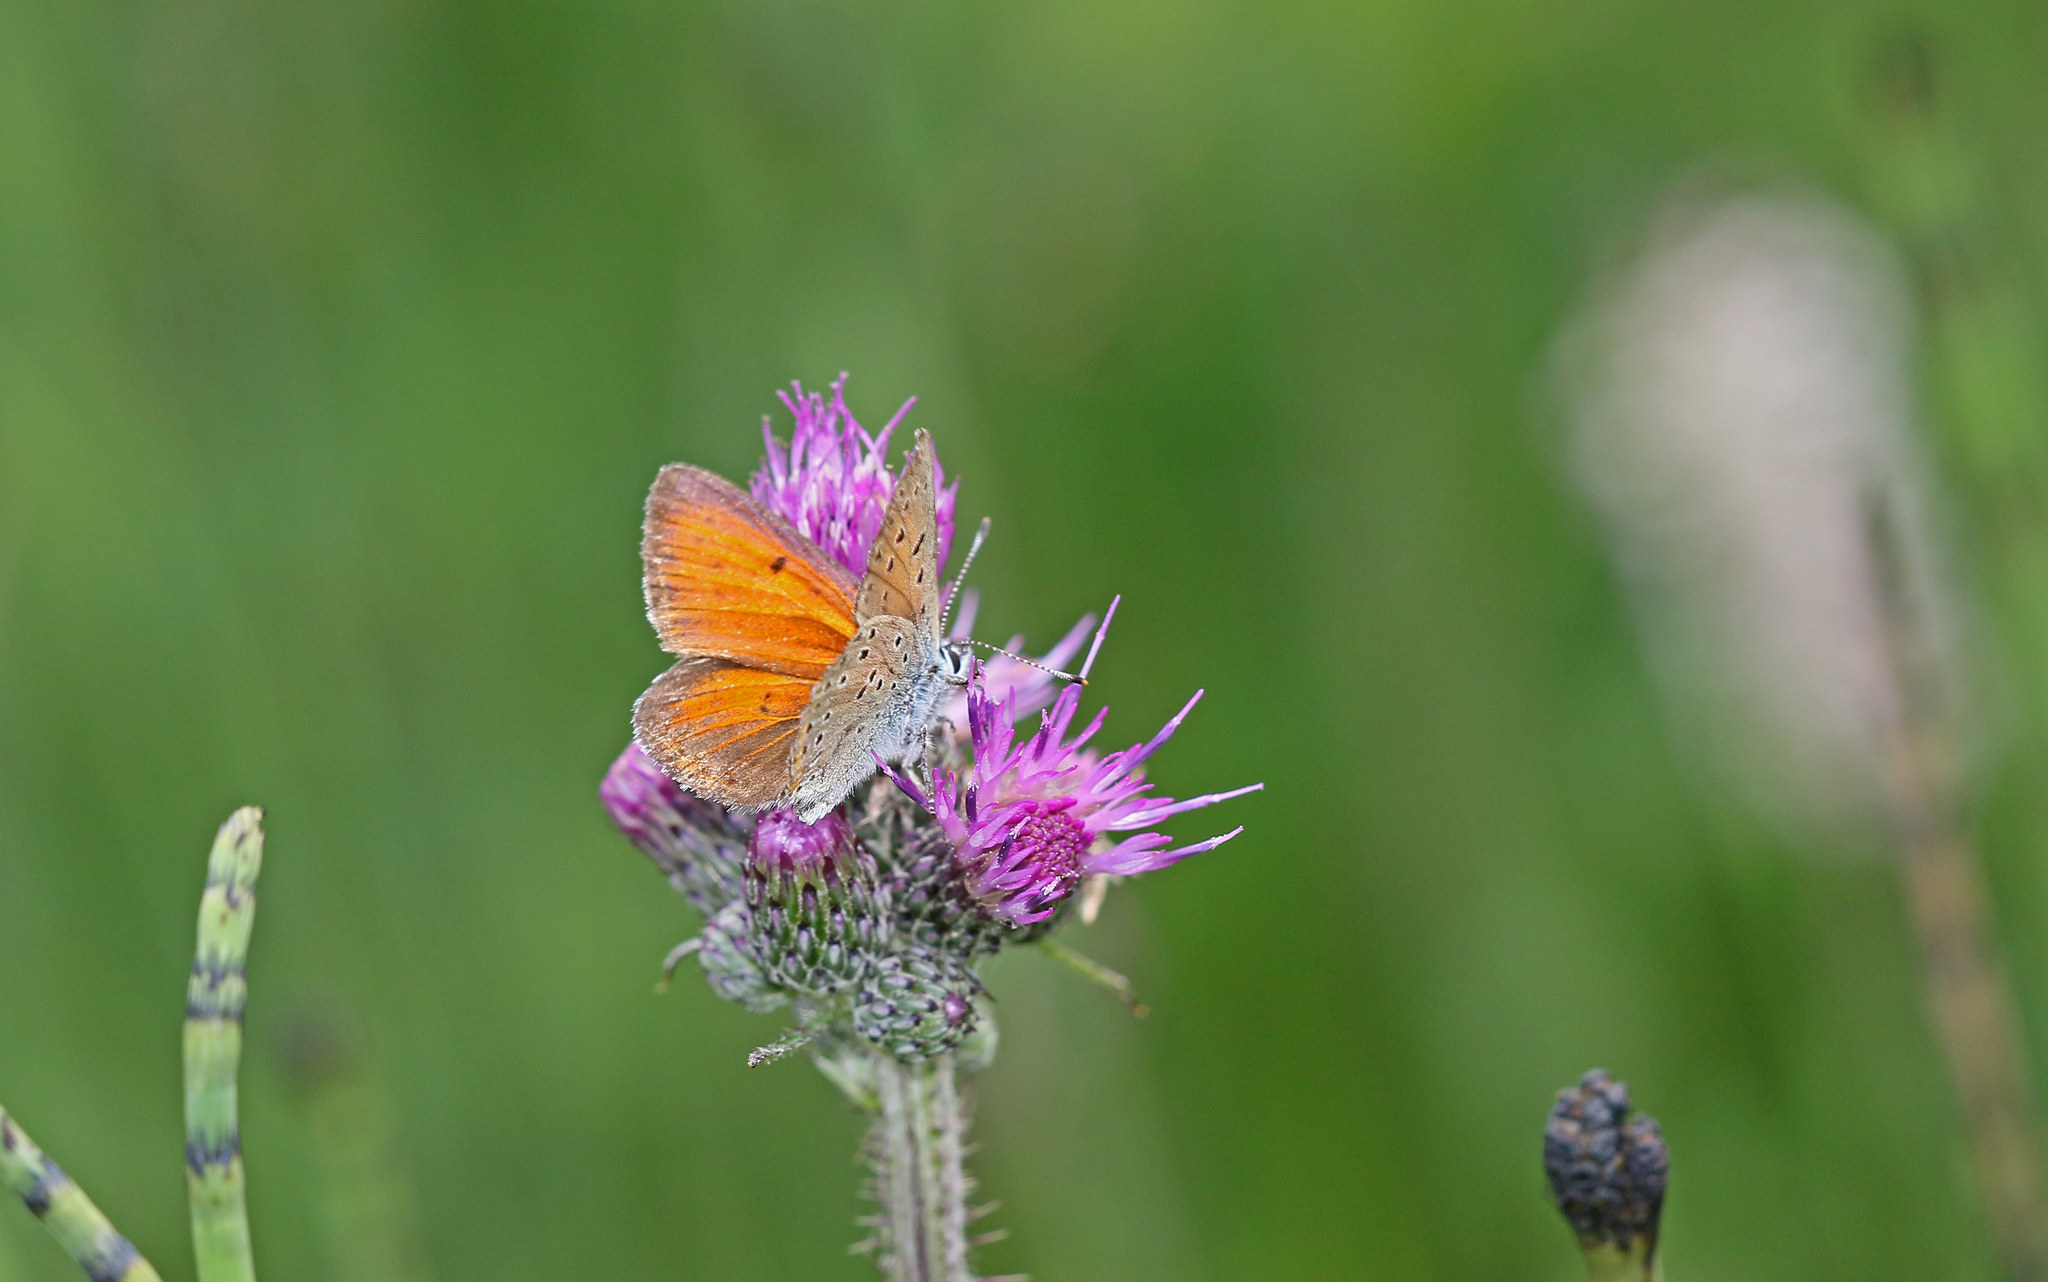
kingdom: Animalia
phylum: Arthropoda
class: Insecta
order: Lepidoptera
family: Lycaenidae
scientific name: Lycaenidae
